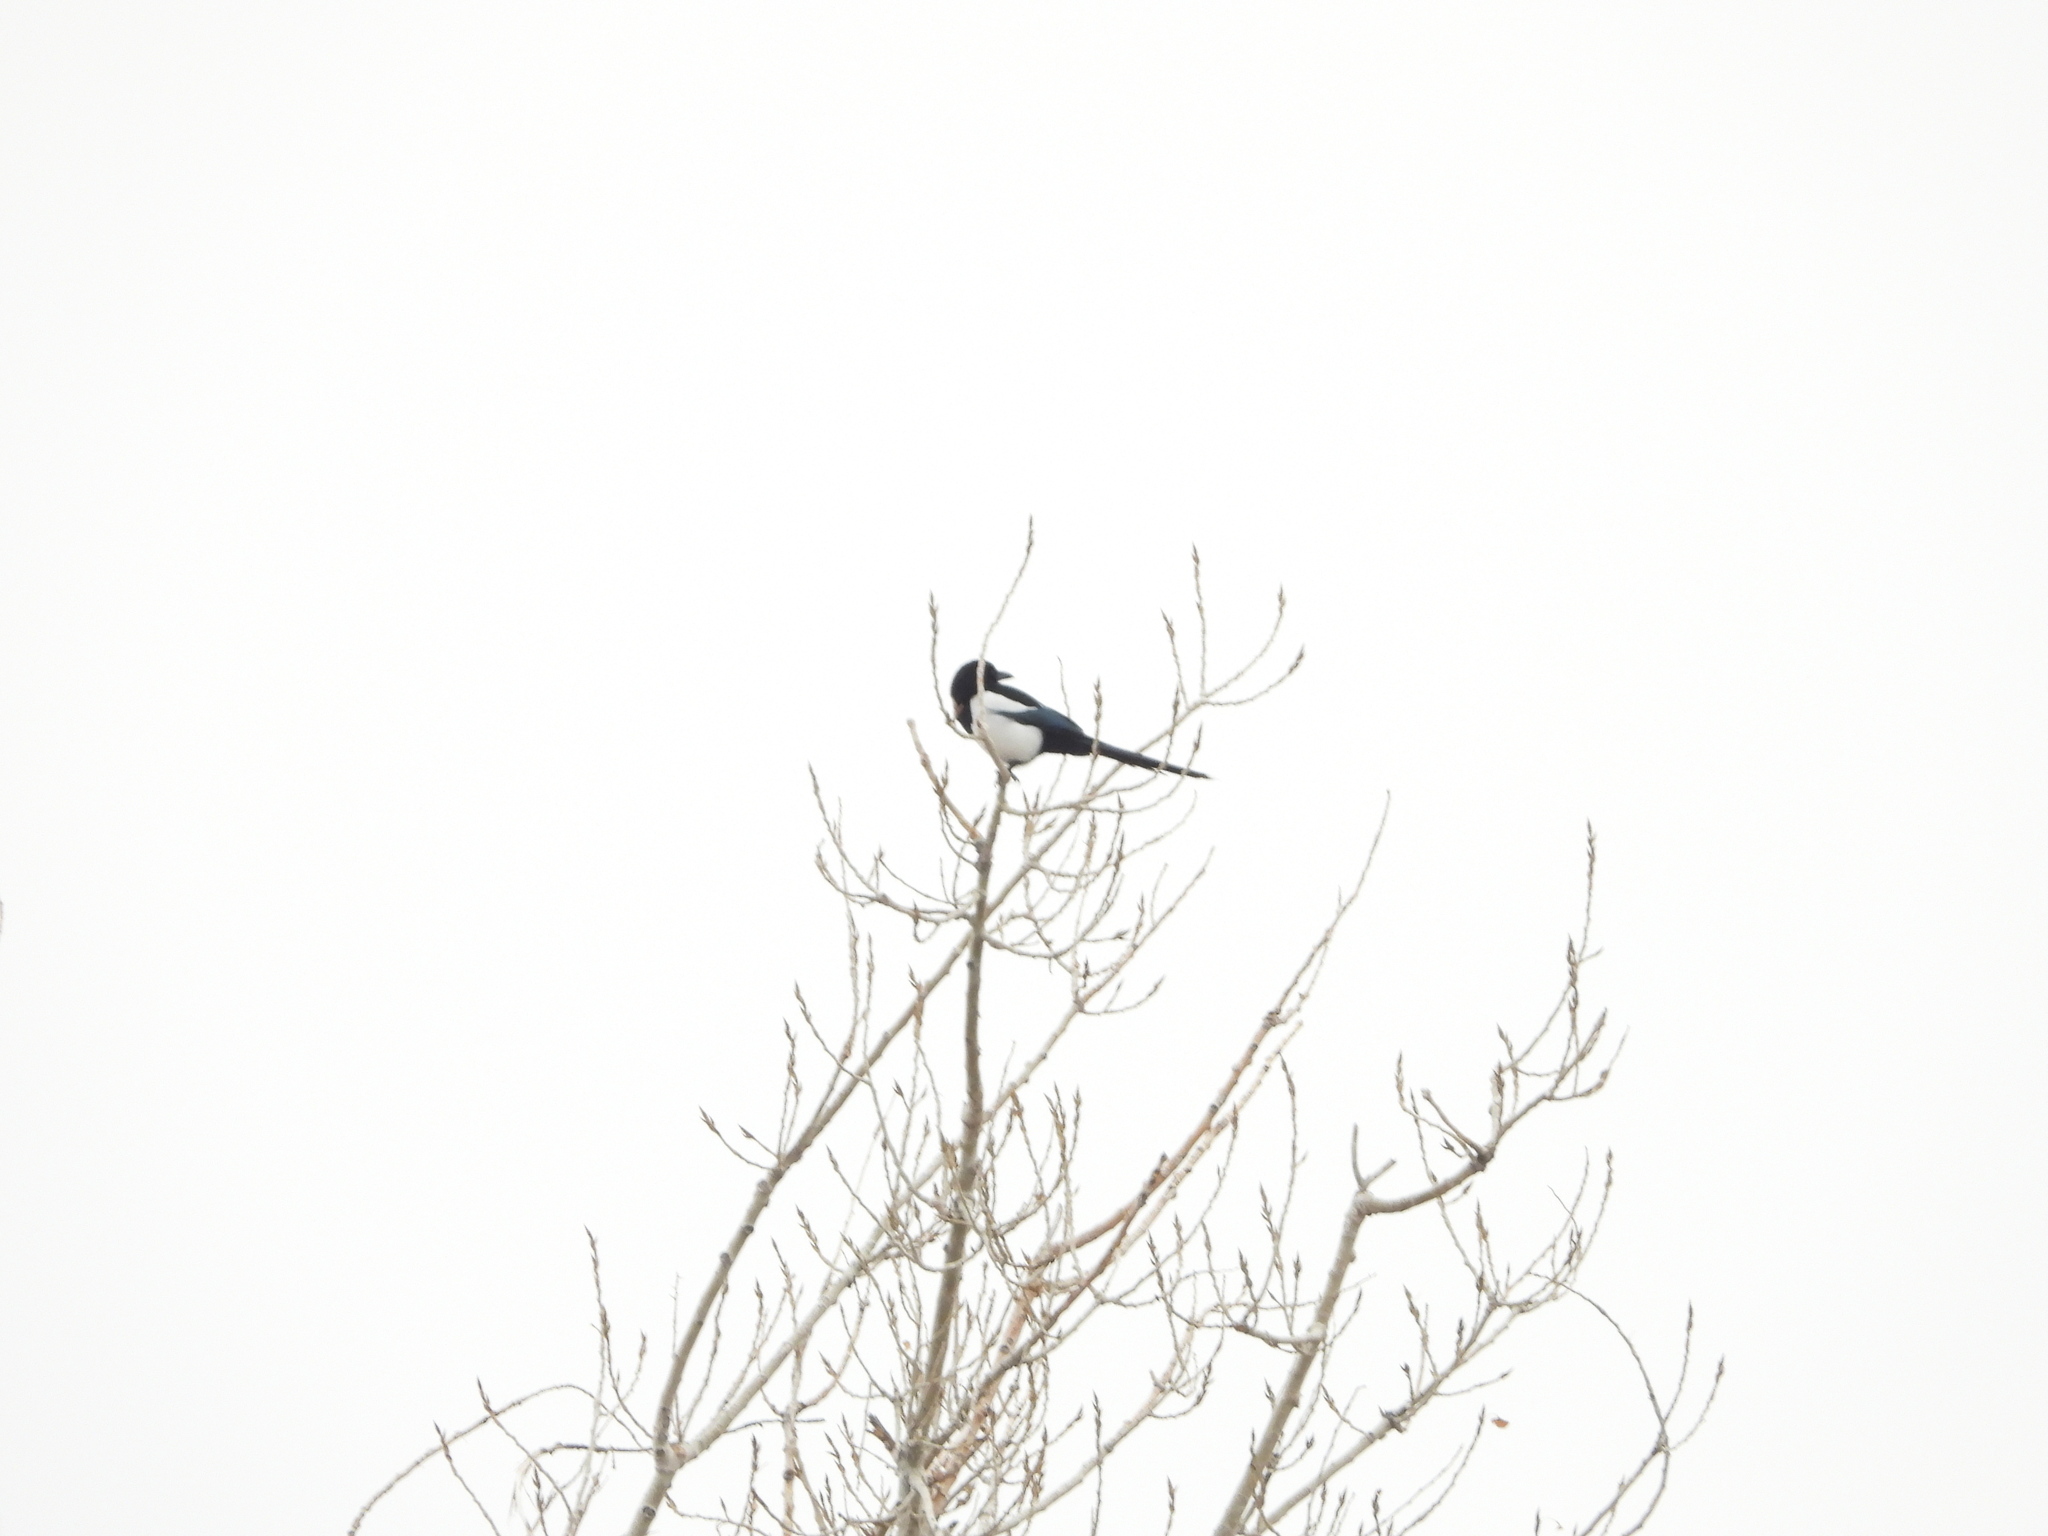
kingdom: Animalia
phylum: Chordata
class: Aves
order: Passeriformes
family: Corvidae
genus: Pica
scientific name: Pica hudsonia
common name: Black-billed magpie
